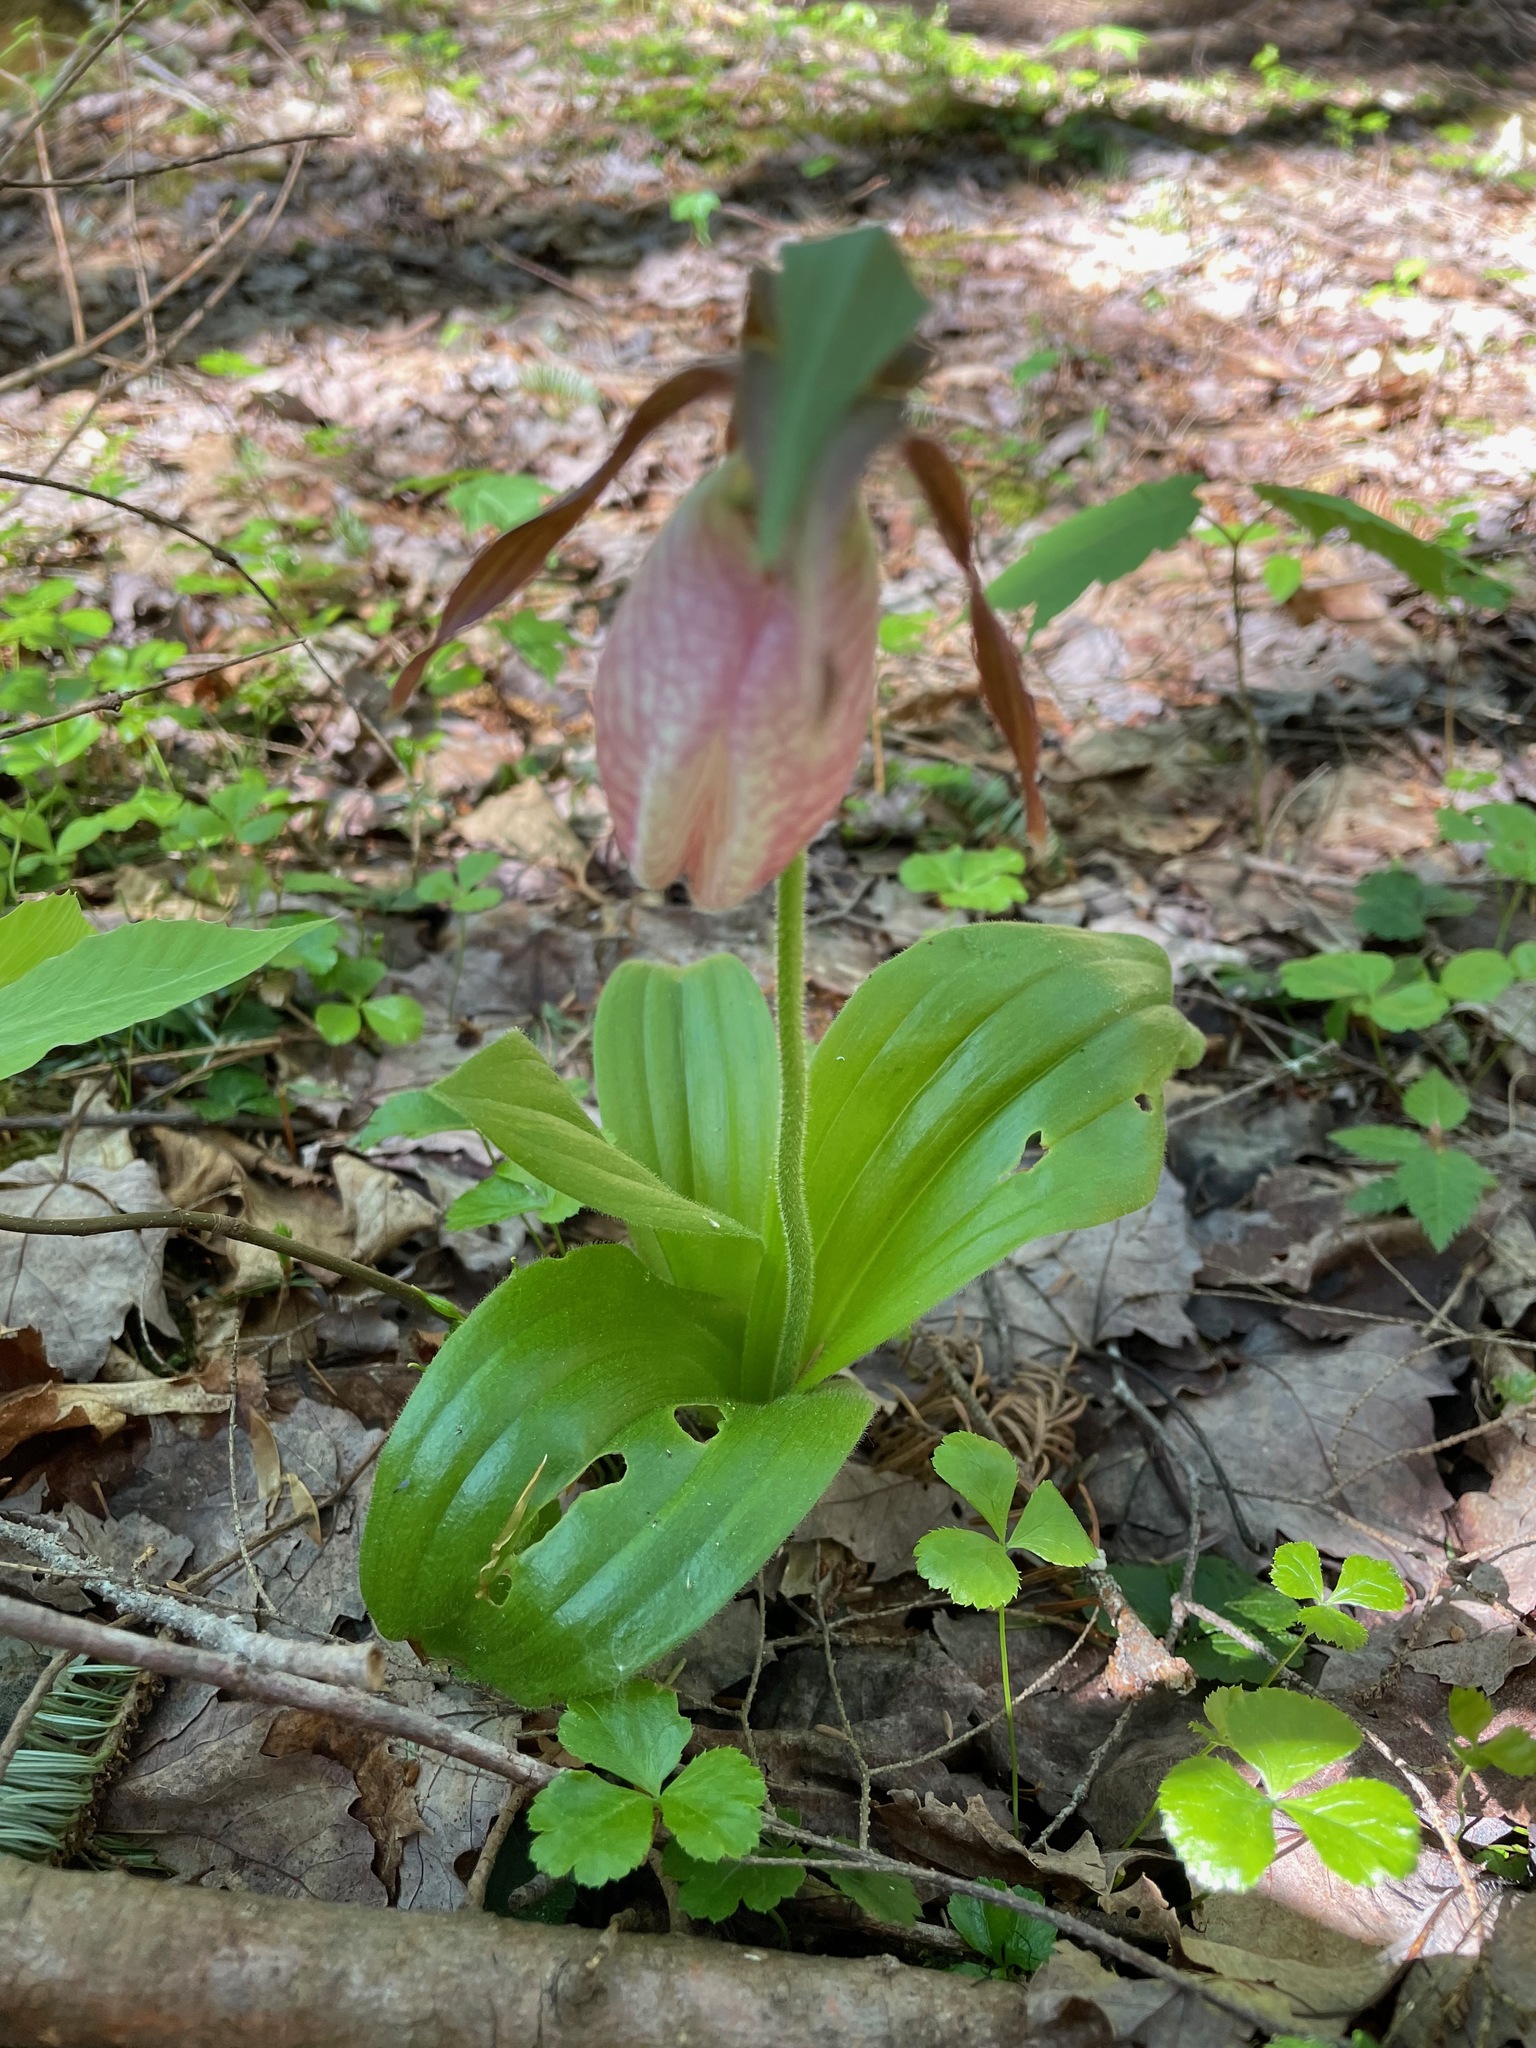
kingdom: Plantae
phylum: Tracheophyta
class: Liliopsida
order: Asparagales
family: Orchidaceae
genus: Cypripedium
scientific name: Cypripedium acaule
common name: Pink lady's-slipper
